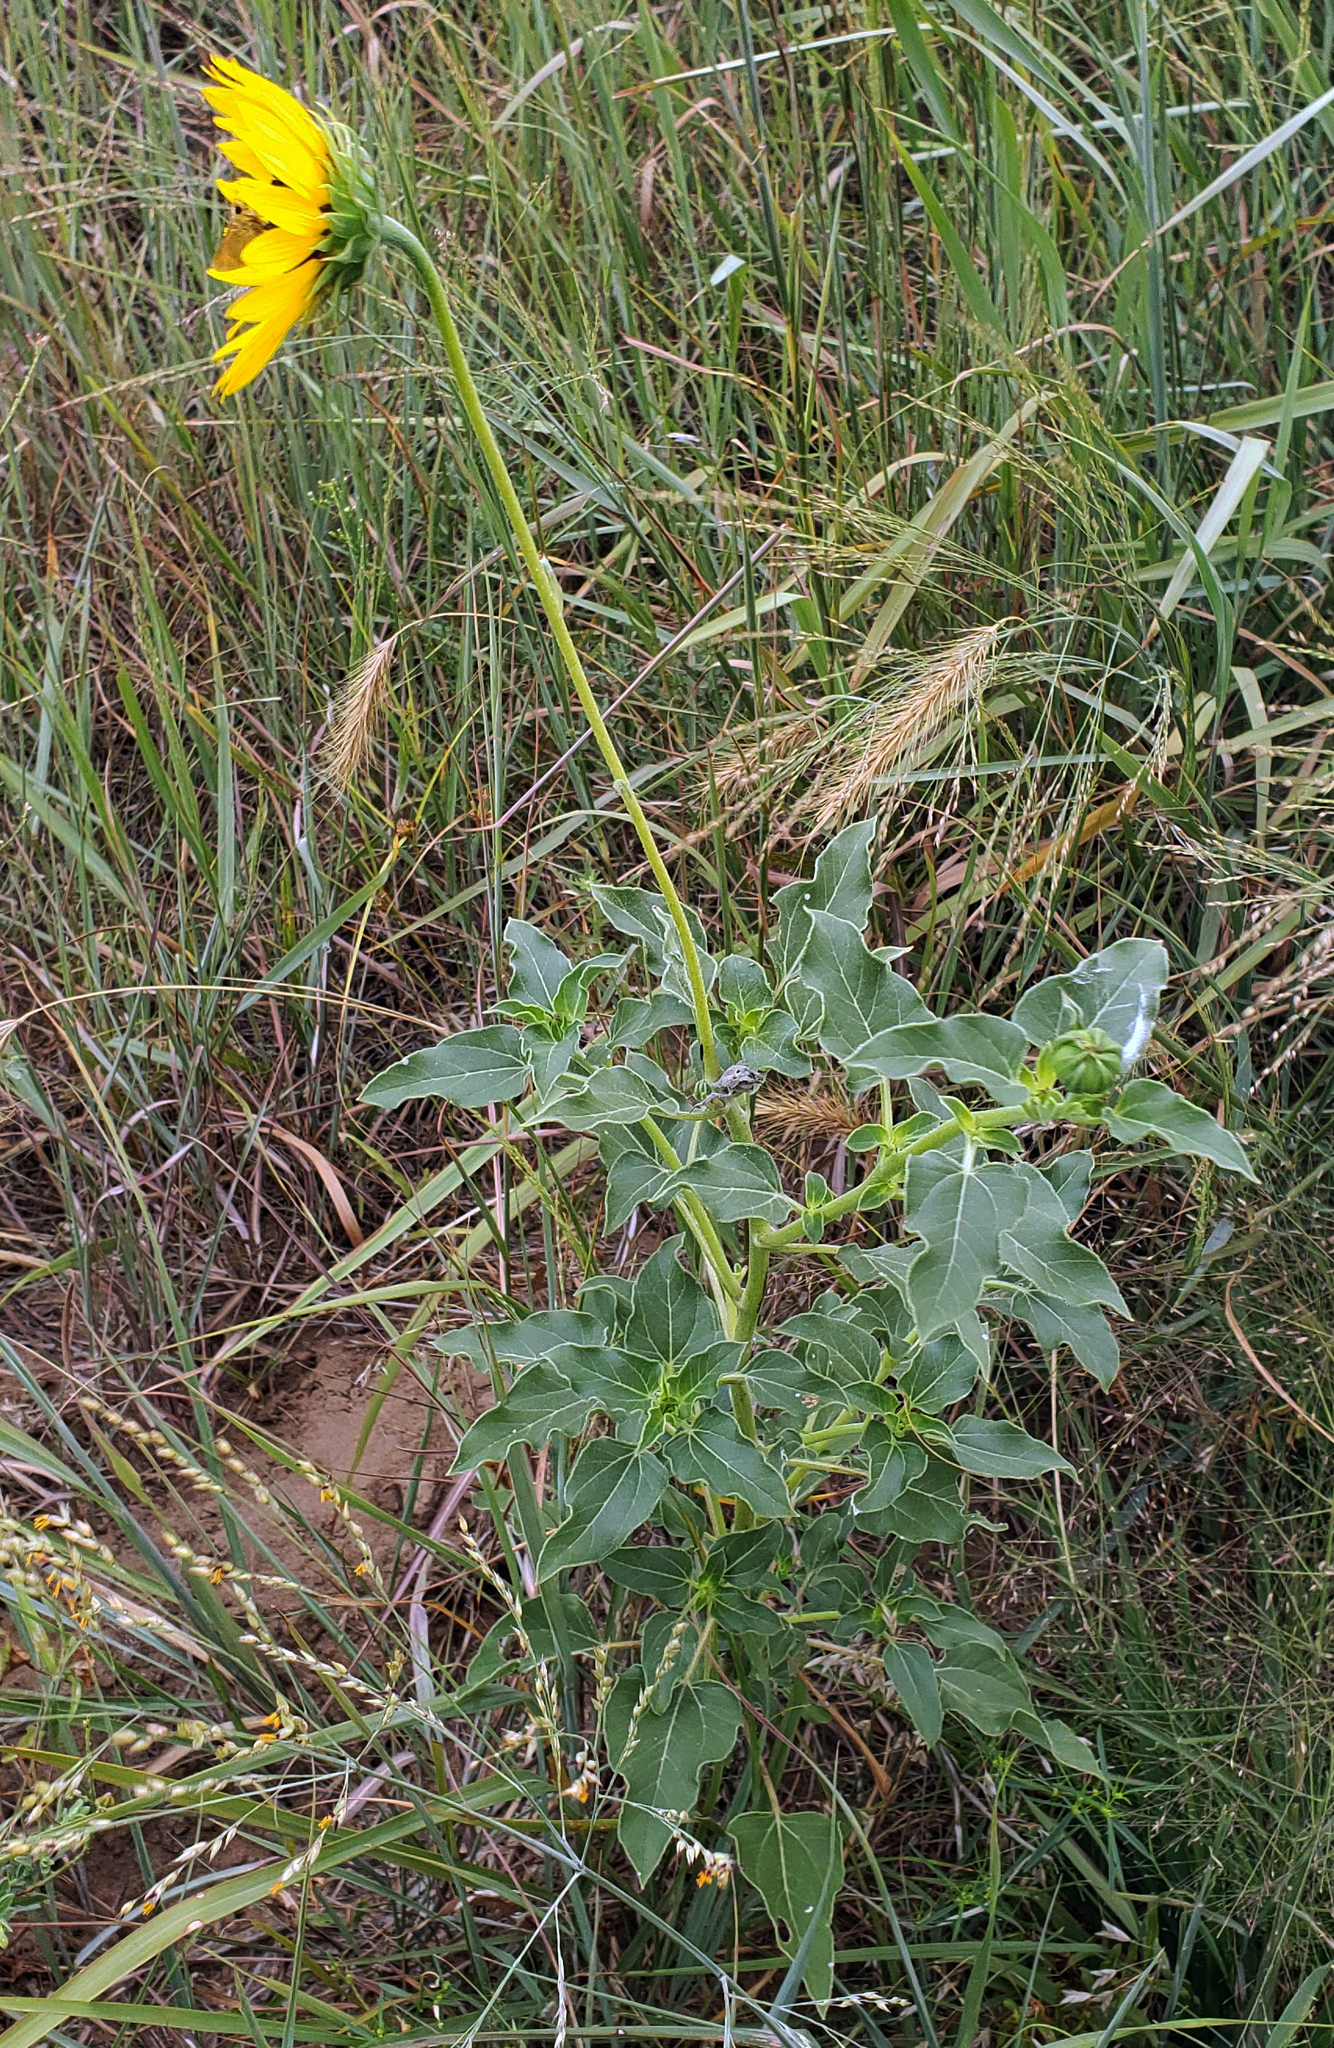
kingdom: Plantae
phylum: Tracheophyta
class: Magnoliopsida
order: Asterales
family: Asteraceae
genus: Helianthus
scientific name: Helianthus petiolaris
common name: Lesser sunflower
